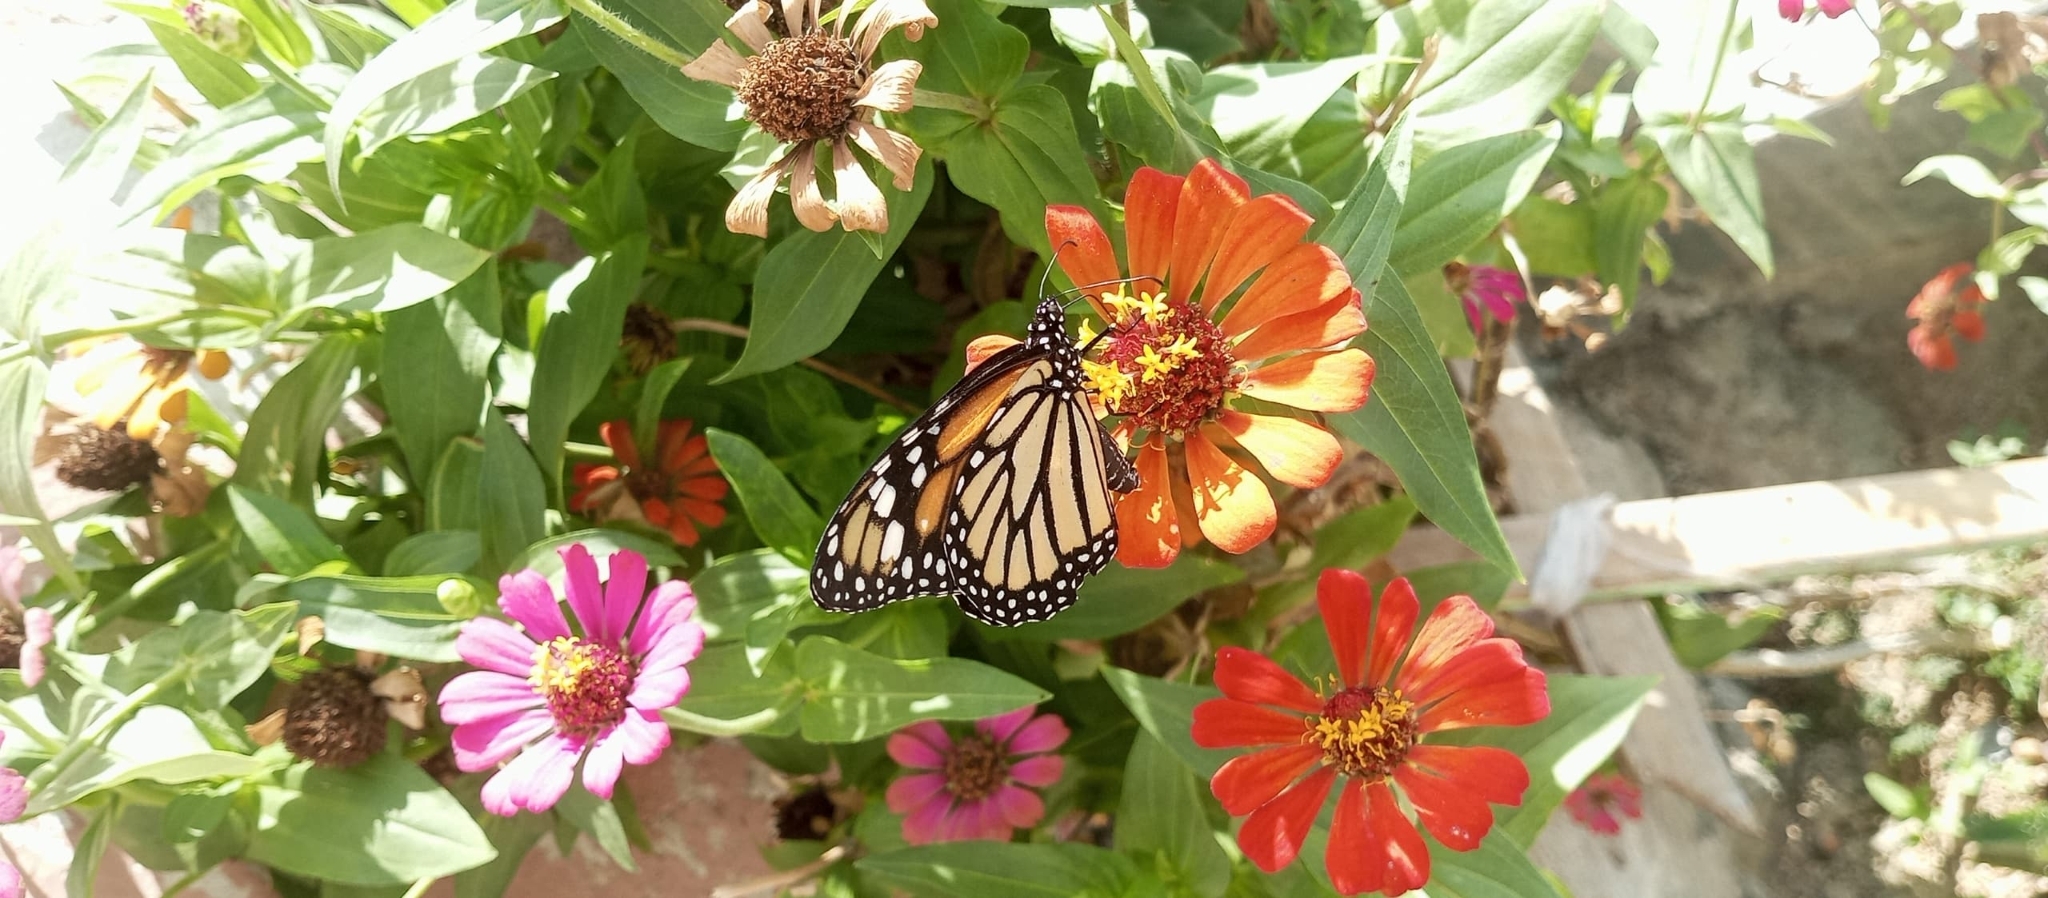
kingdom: Animalia
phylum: Arthropoda
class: Insecta
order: Lepidoptera
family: Nymphalidae
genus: Danaus
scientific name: Danaus plexippus
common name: Monarch
